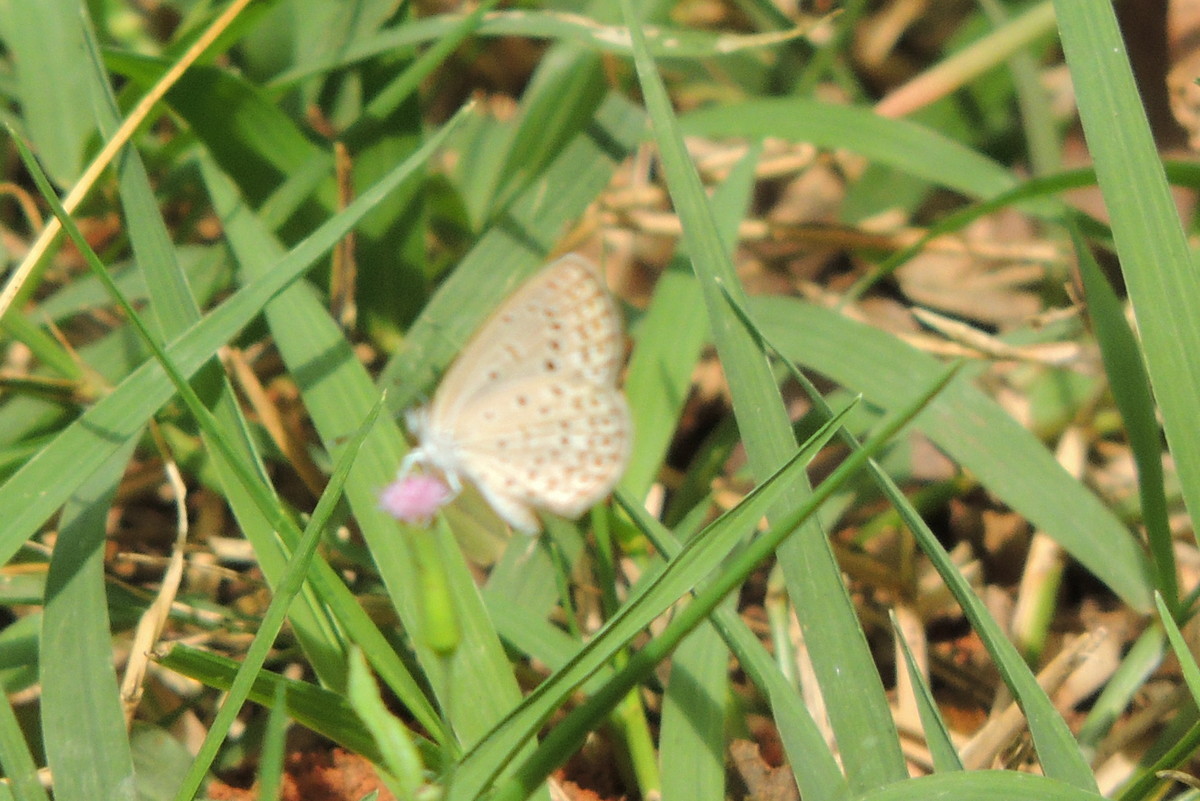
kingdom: Animalia
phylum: Arthropoda
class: Insecta
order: Lepidoptera
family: Lycaenidae
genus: Zizeeria
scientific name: Zizeeria knysna
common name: African grass blue
